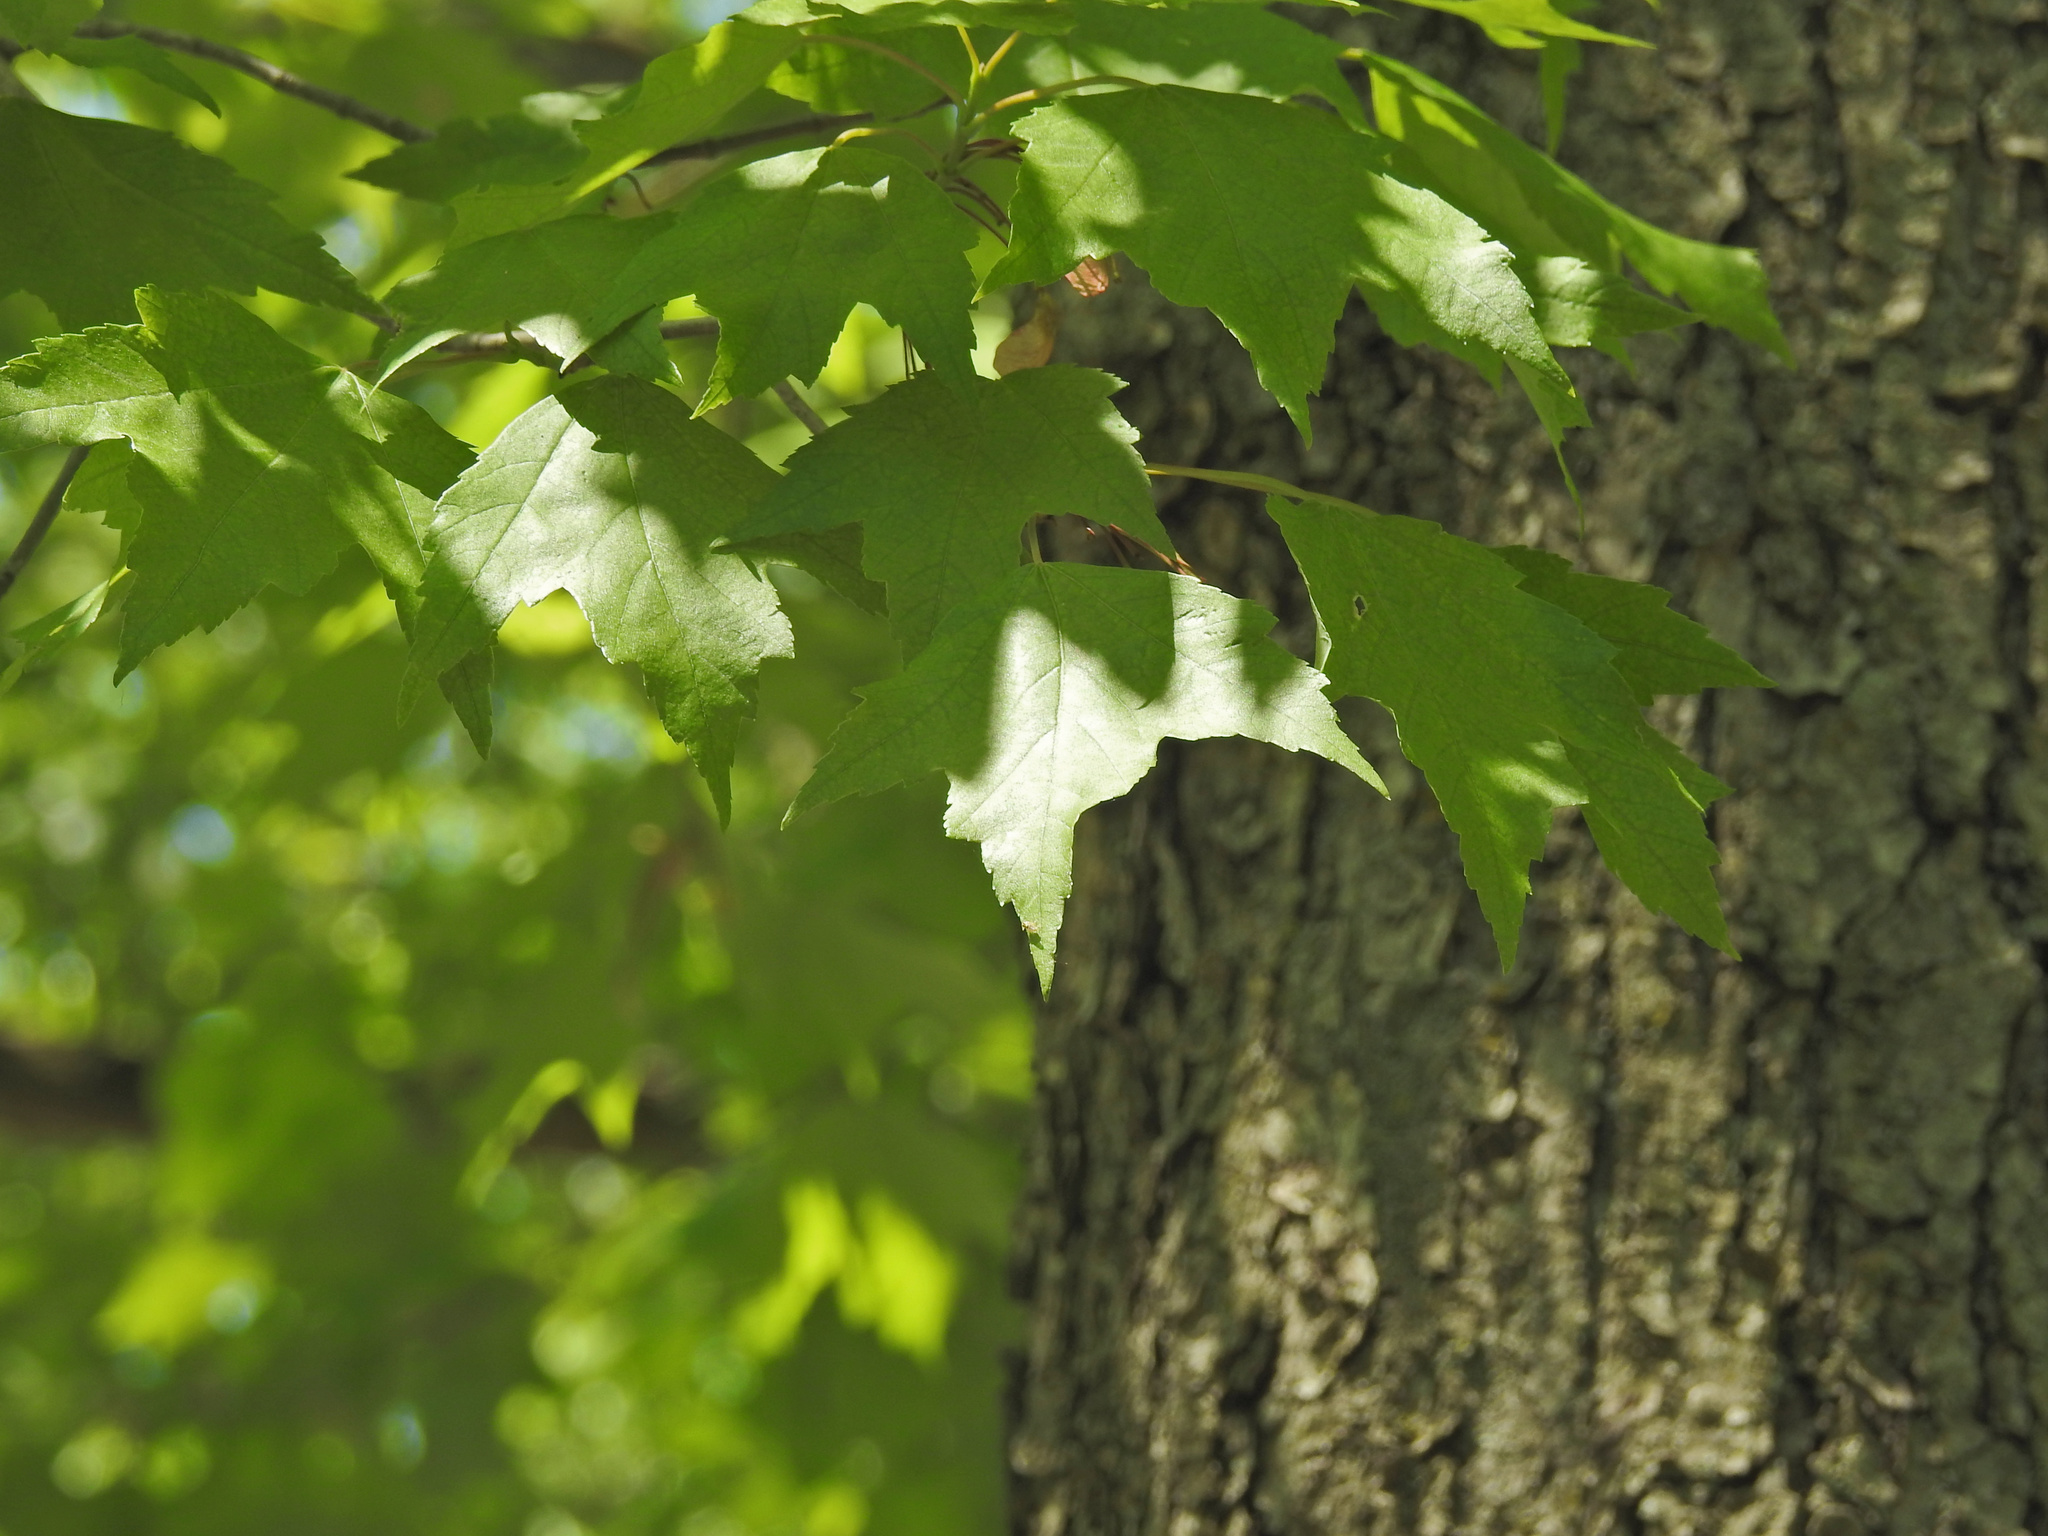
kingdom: Plantae
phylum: Tracheophyta
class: Magnoliopsida
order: Sapindales
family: Sapindaceae
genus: Acer
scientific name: Acer rubrum
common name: Red maple
